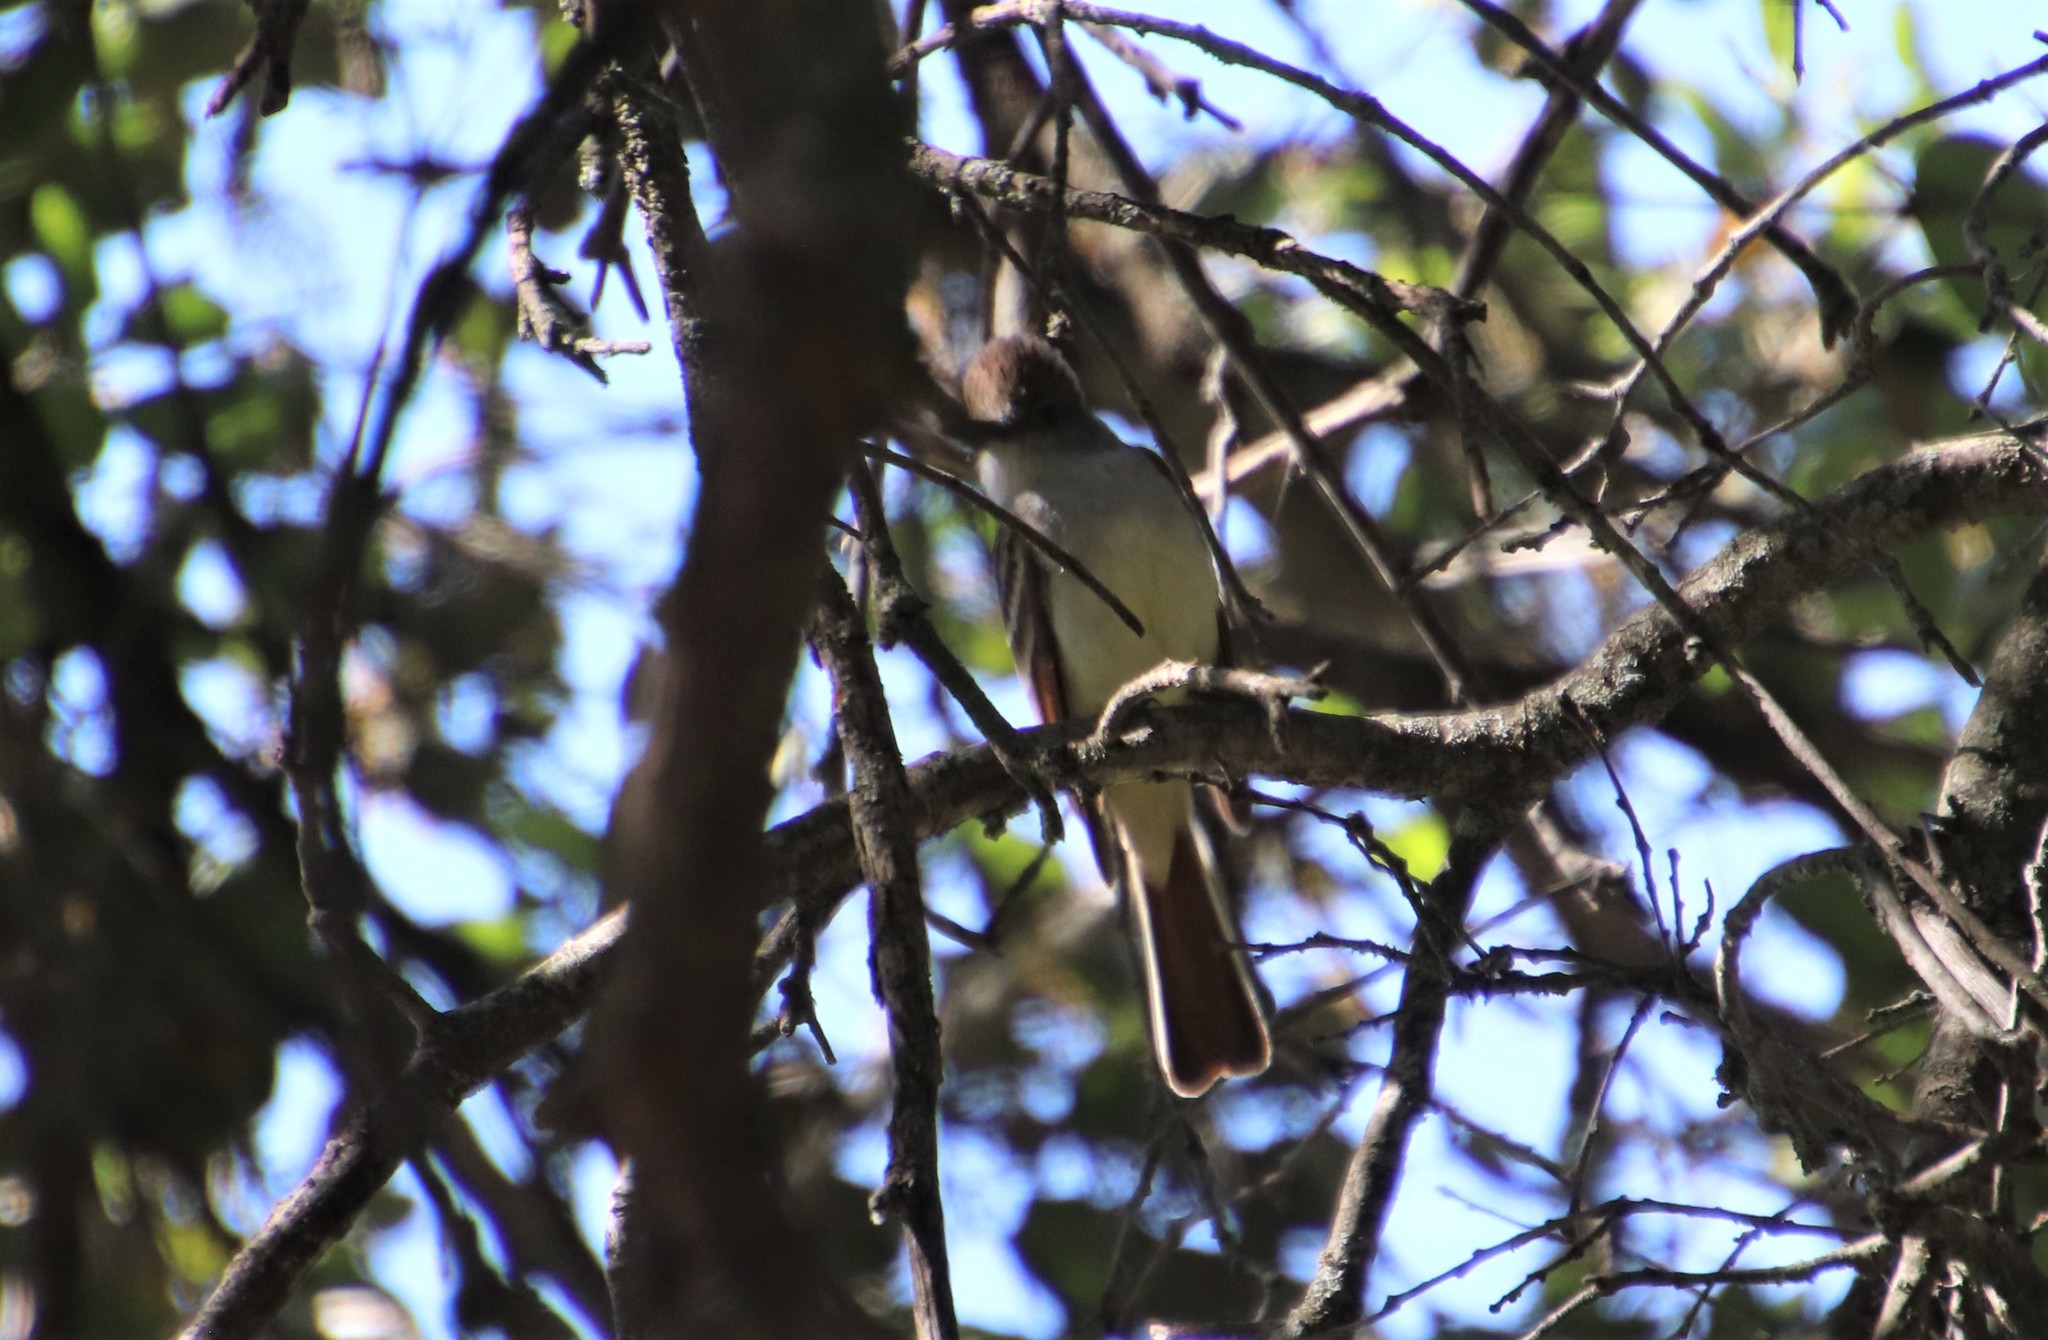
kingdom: Animalia
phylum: Chordata
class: Aves
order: Passeriformes
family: Tyrannidae
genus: Myiarchus
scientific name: Myiarchus cinerascens
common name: Ash-throated flycatcher
